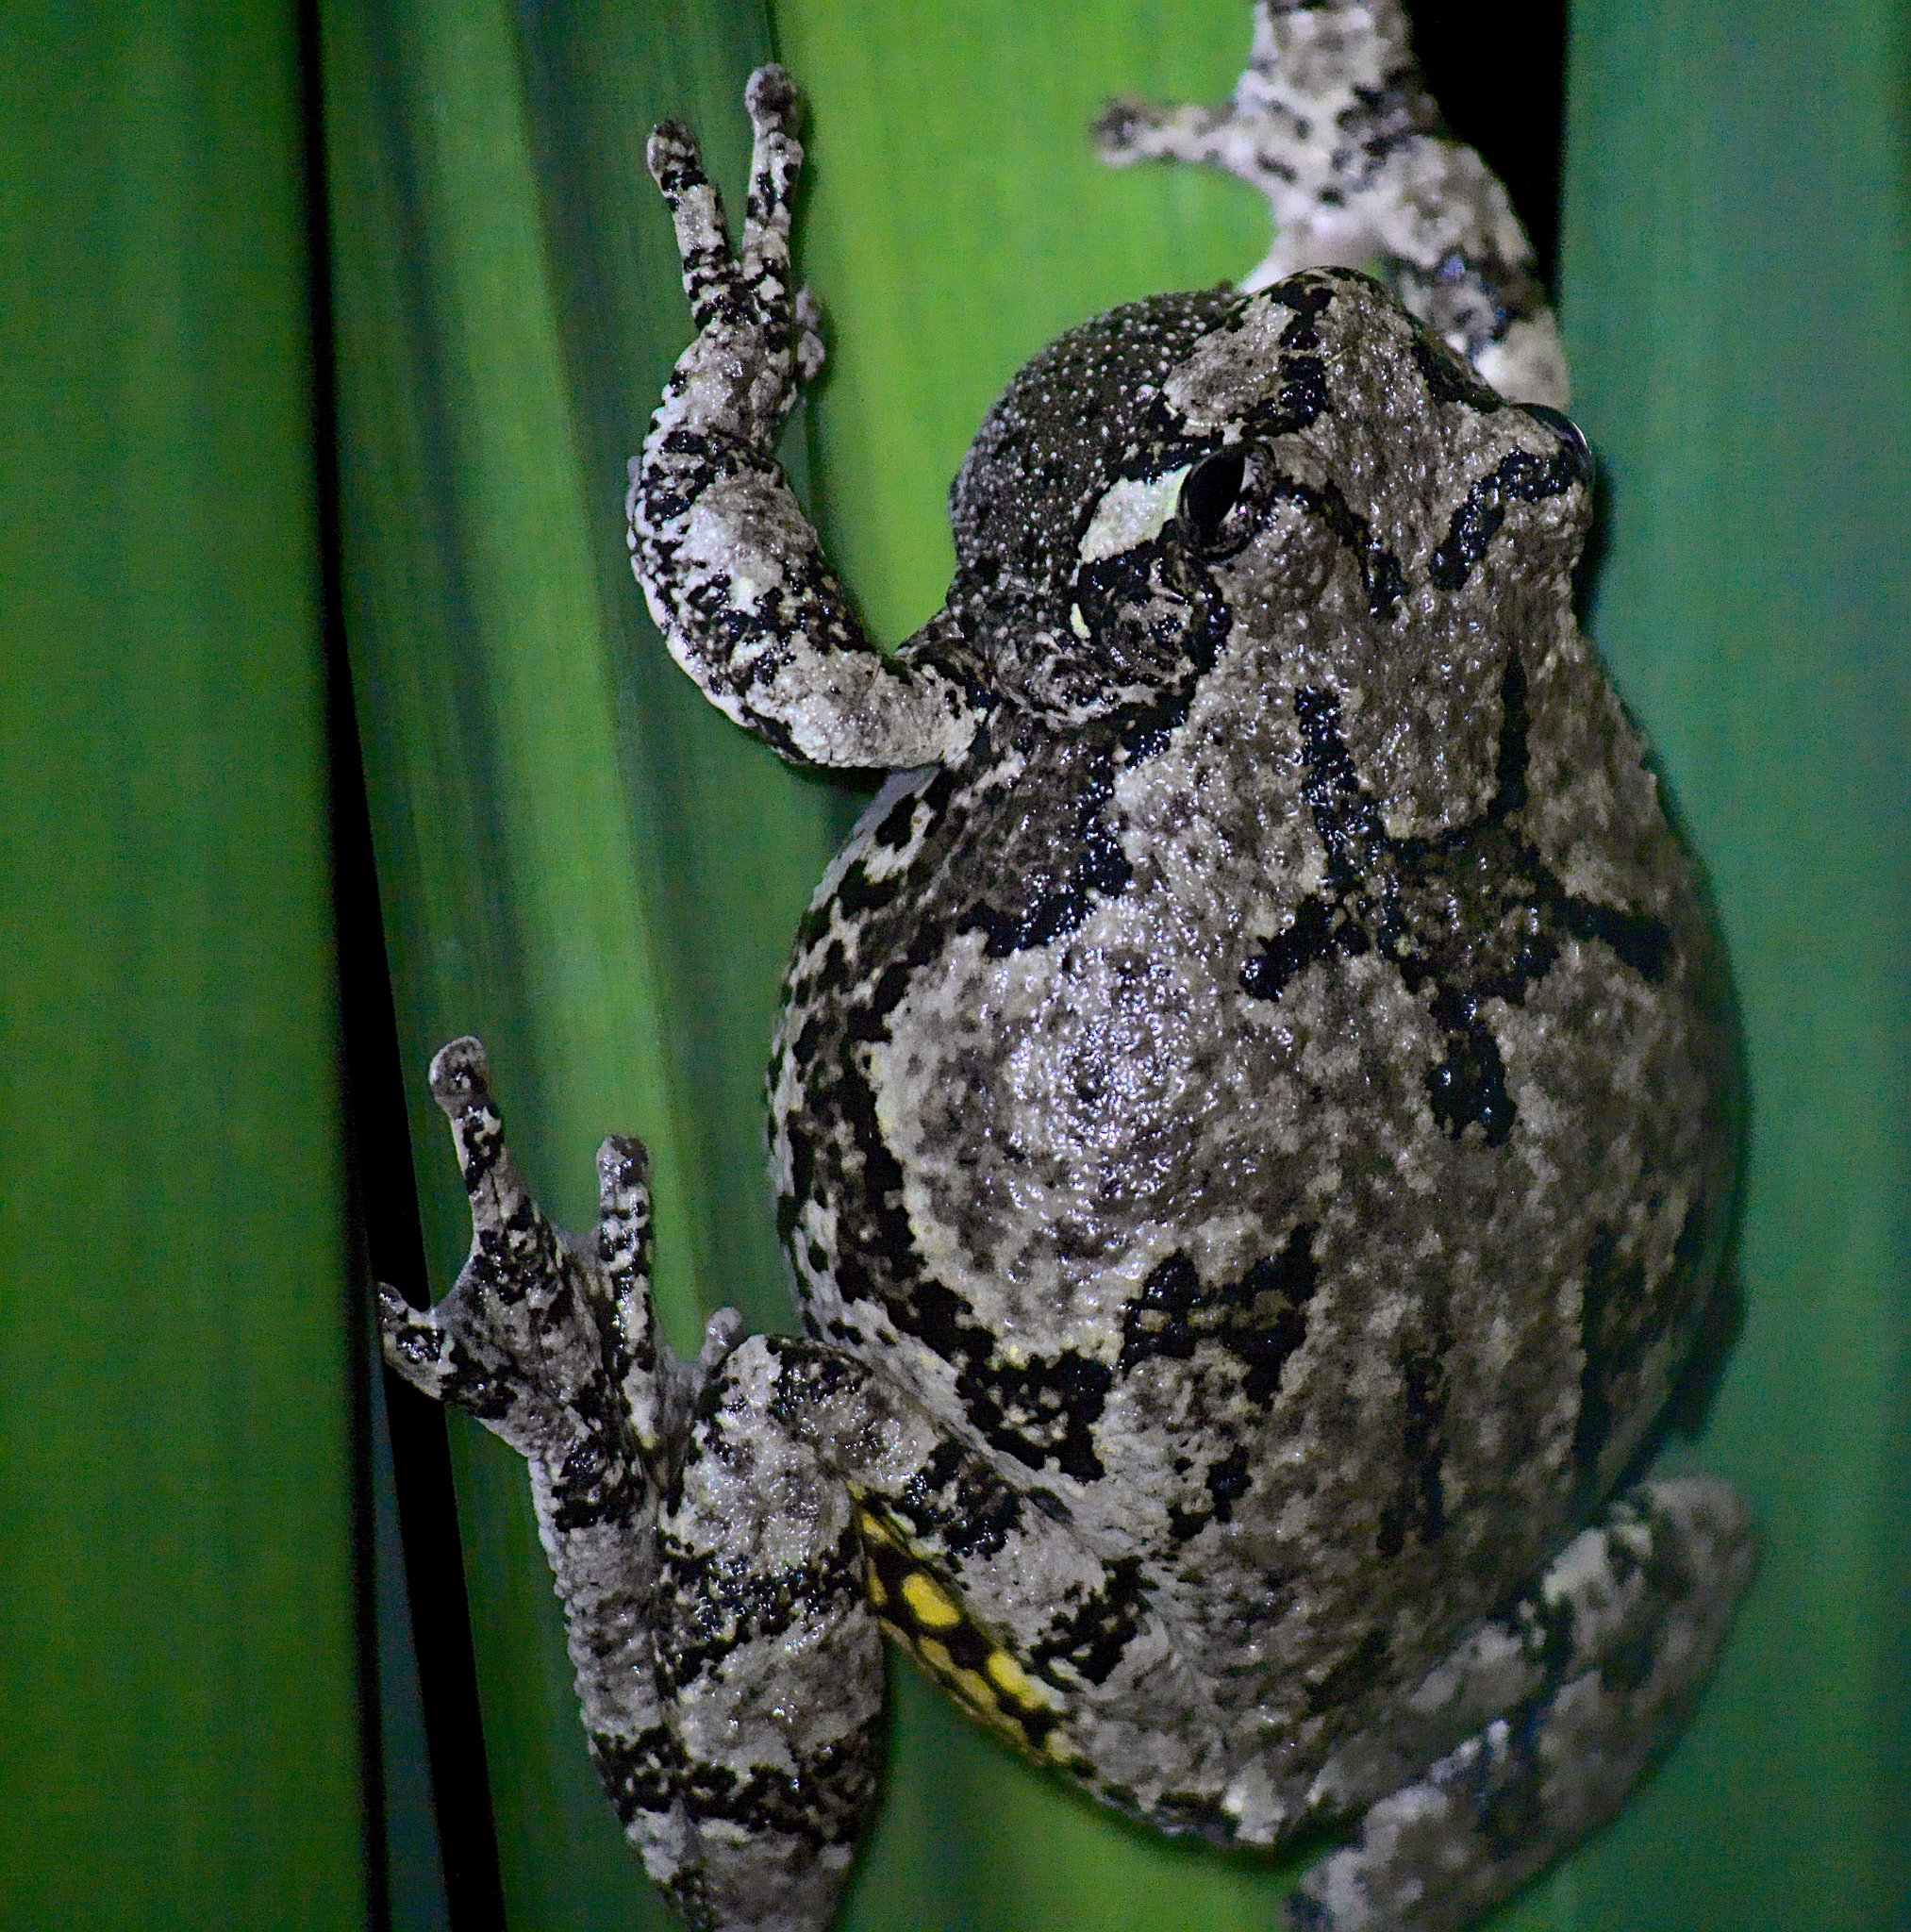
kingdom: Animalia
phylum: Chordata
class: Amphibia
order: Anura
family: Hylidae
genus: Dryophytes
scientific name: Dryophytes versicolor
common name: Gray treefrog
